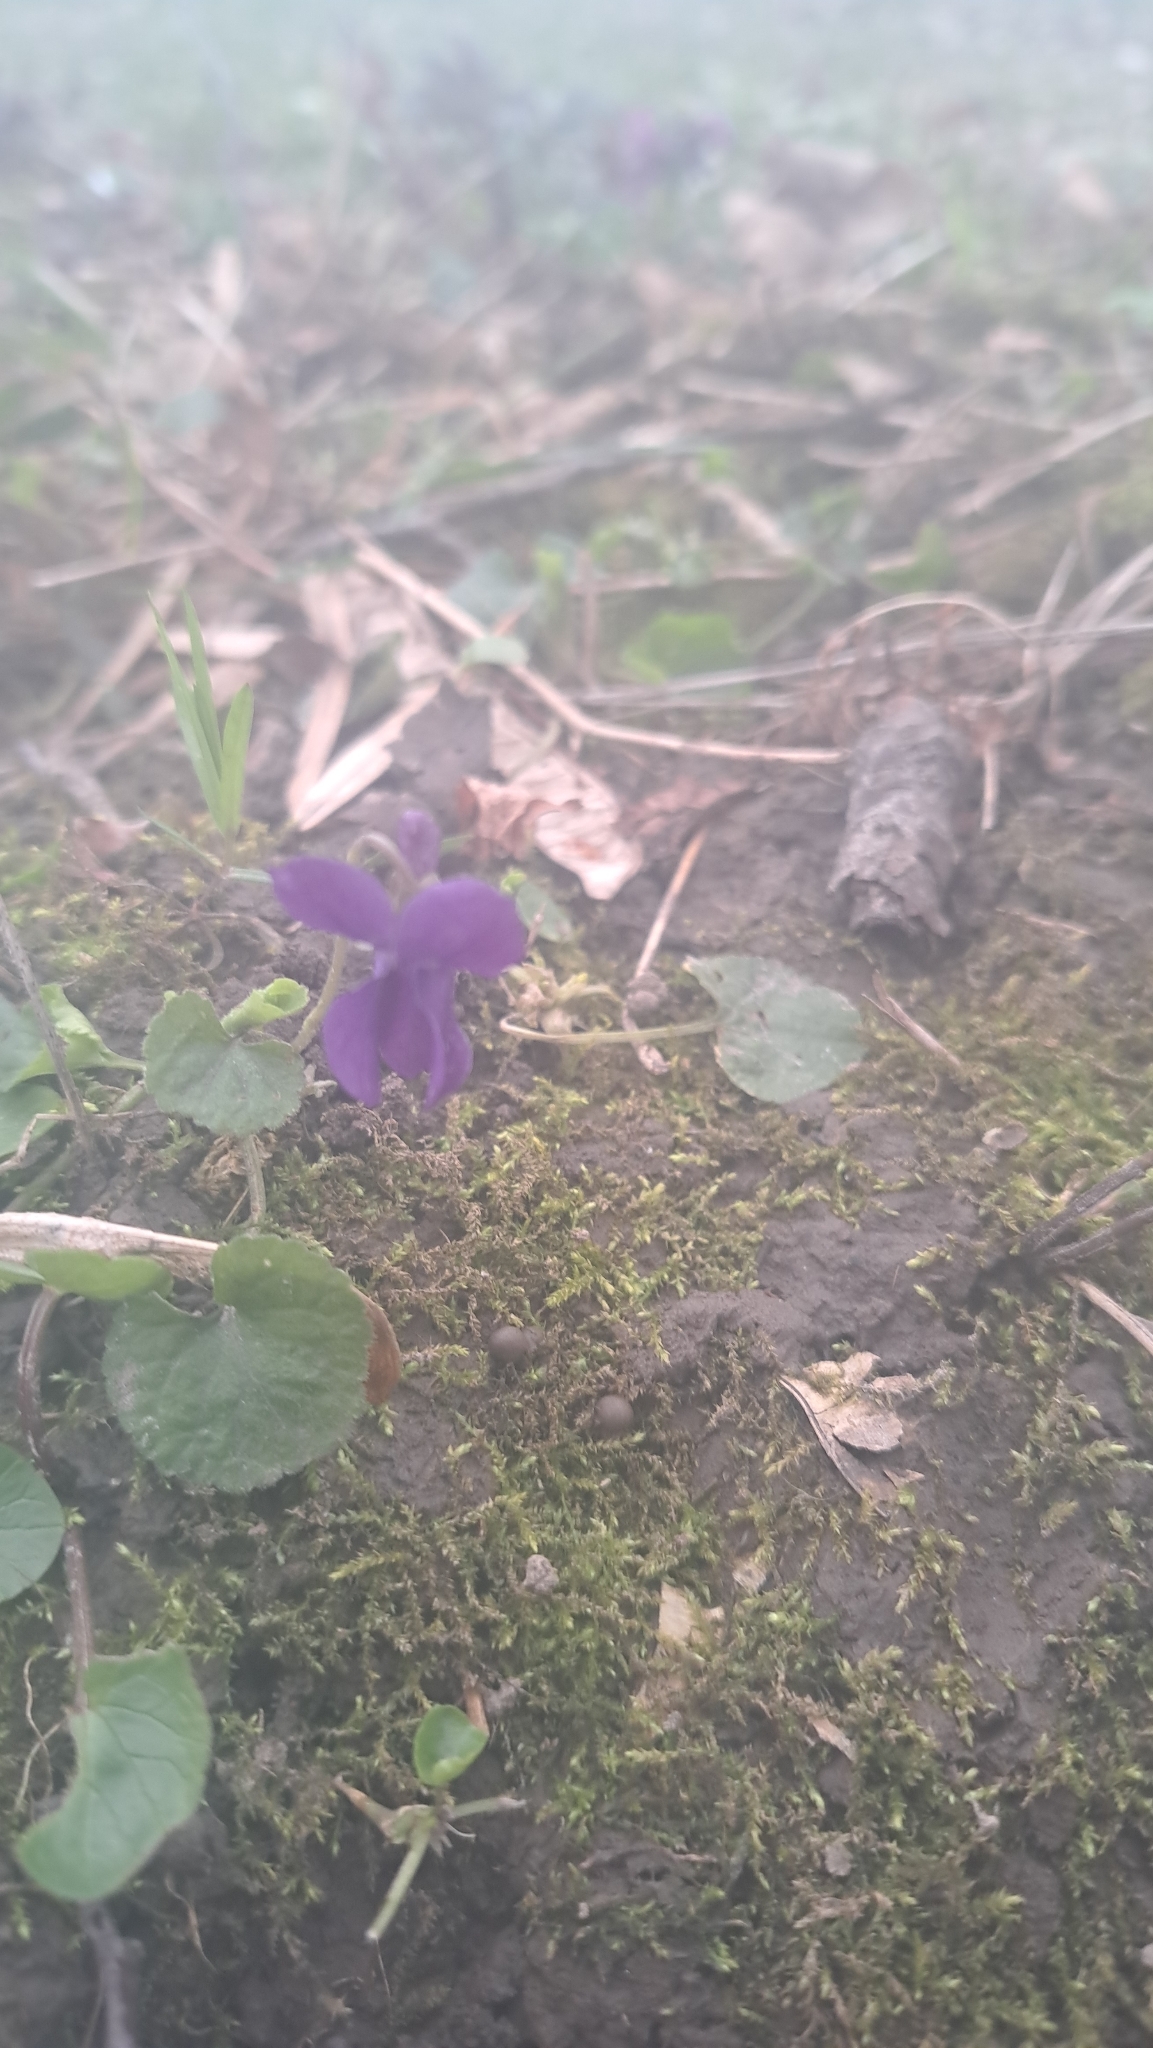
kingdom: Plantae
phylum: Tracheophyta
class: Magnoliopsida
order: Malpighiales
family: Violaceae
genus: Viola
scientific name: Viola odorata
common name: Sweet violet
